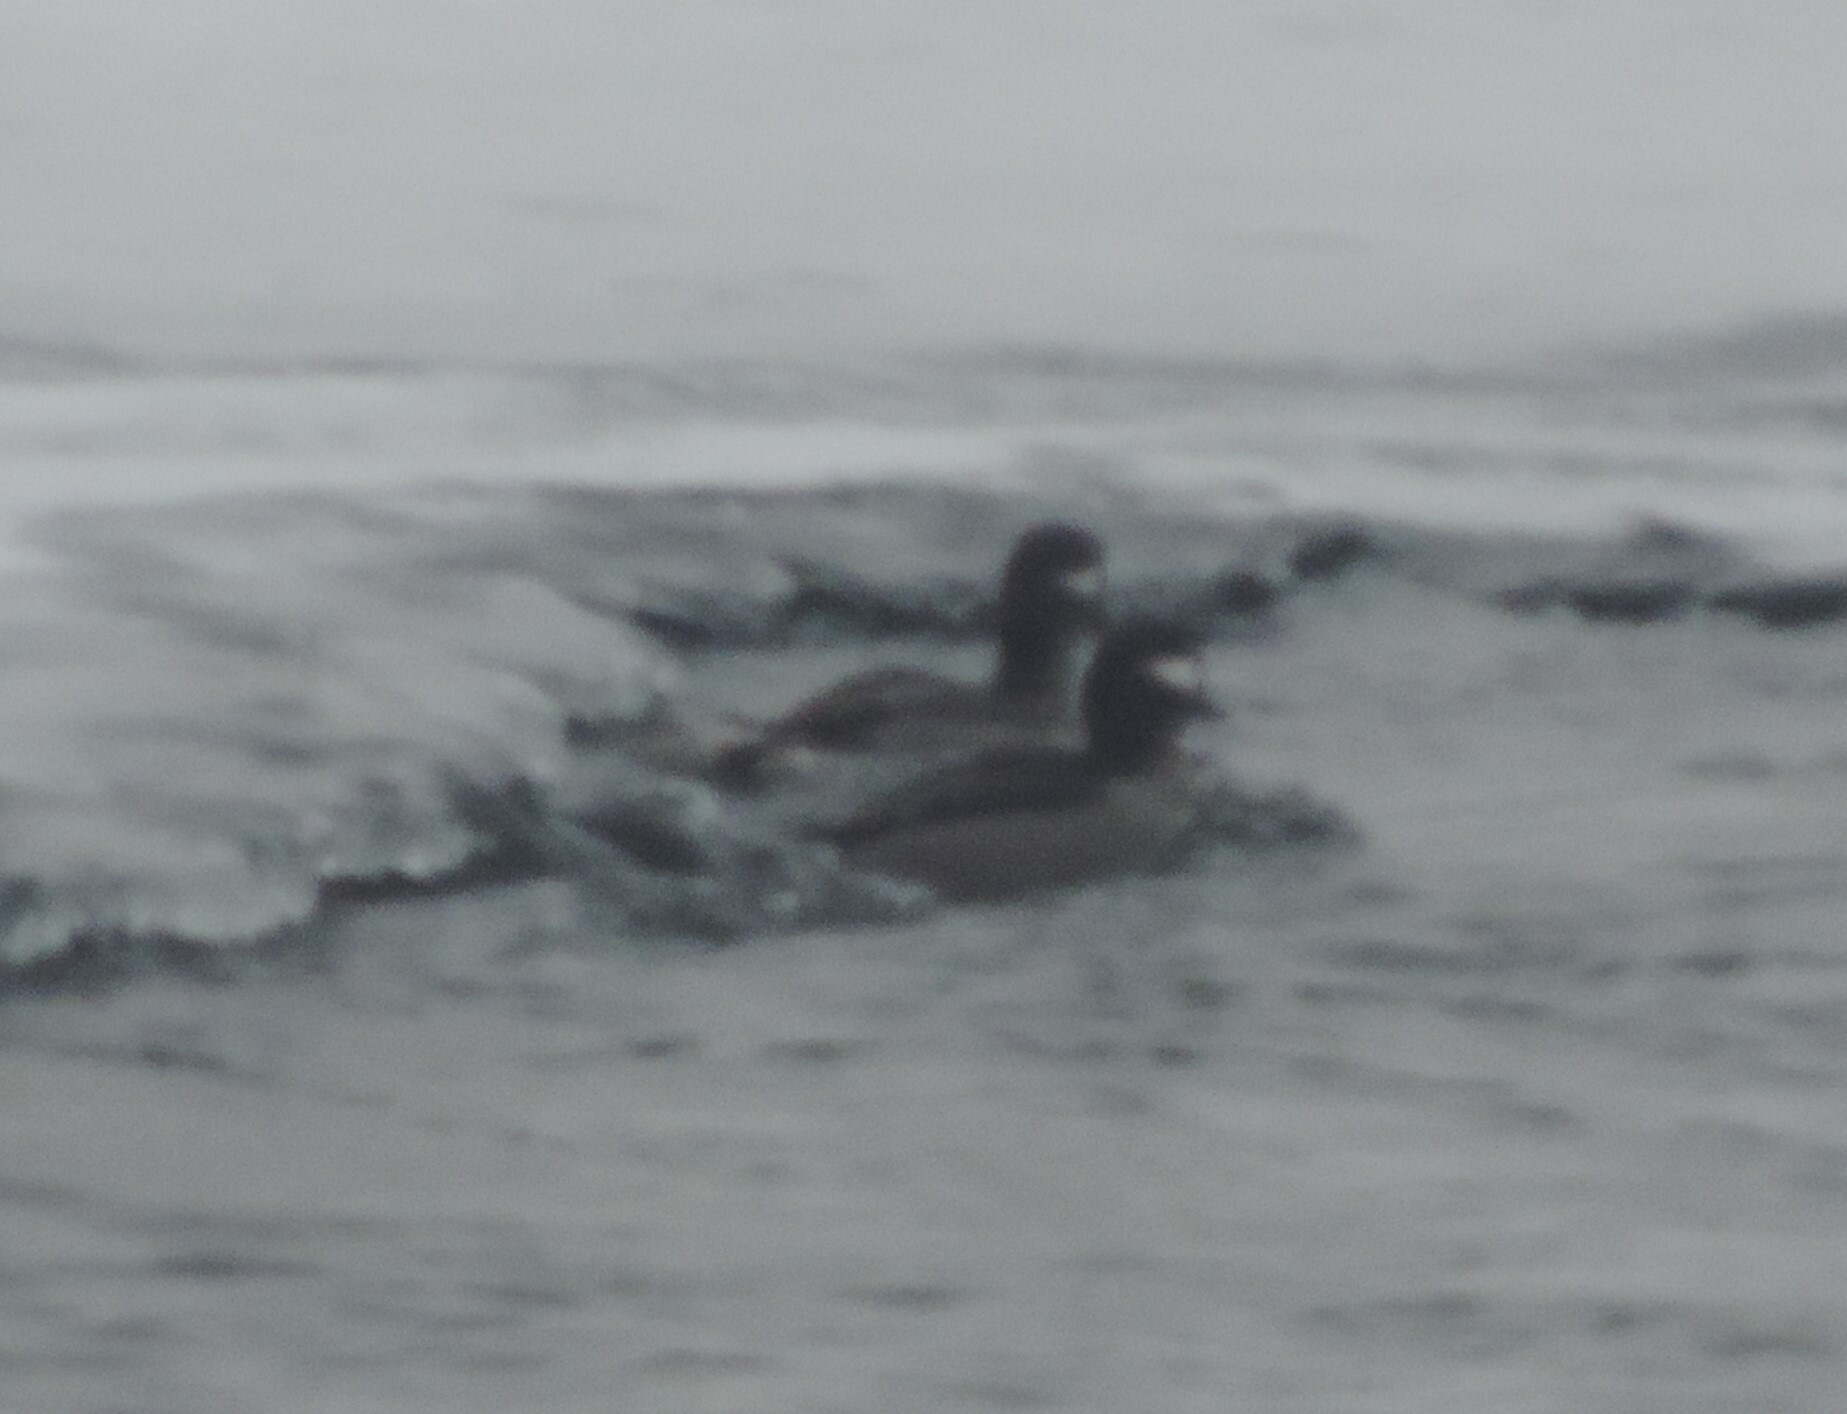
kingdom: Animalia
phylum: Chordata
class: Aves
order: Anseriformes
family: Anatidae
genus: Bucephala
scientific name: Bucephala albeola
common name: Bufflehead
